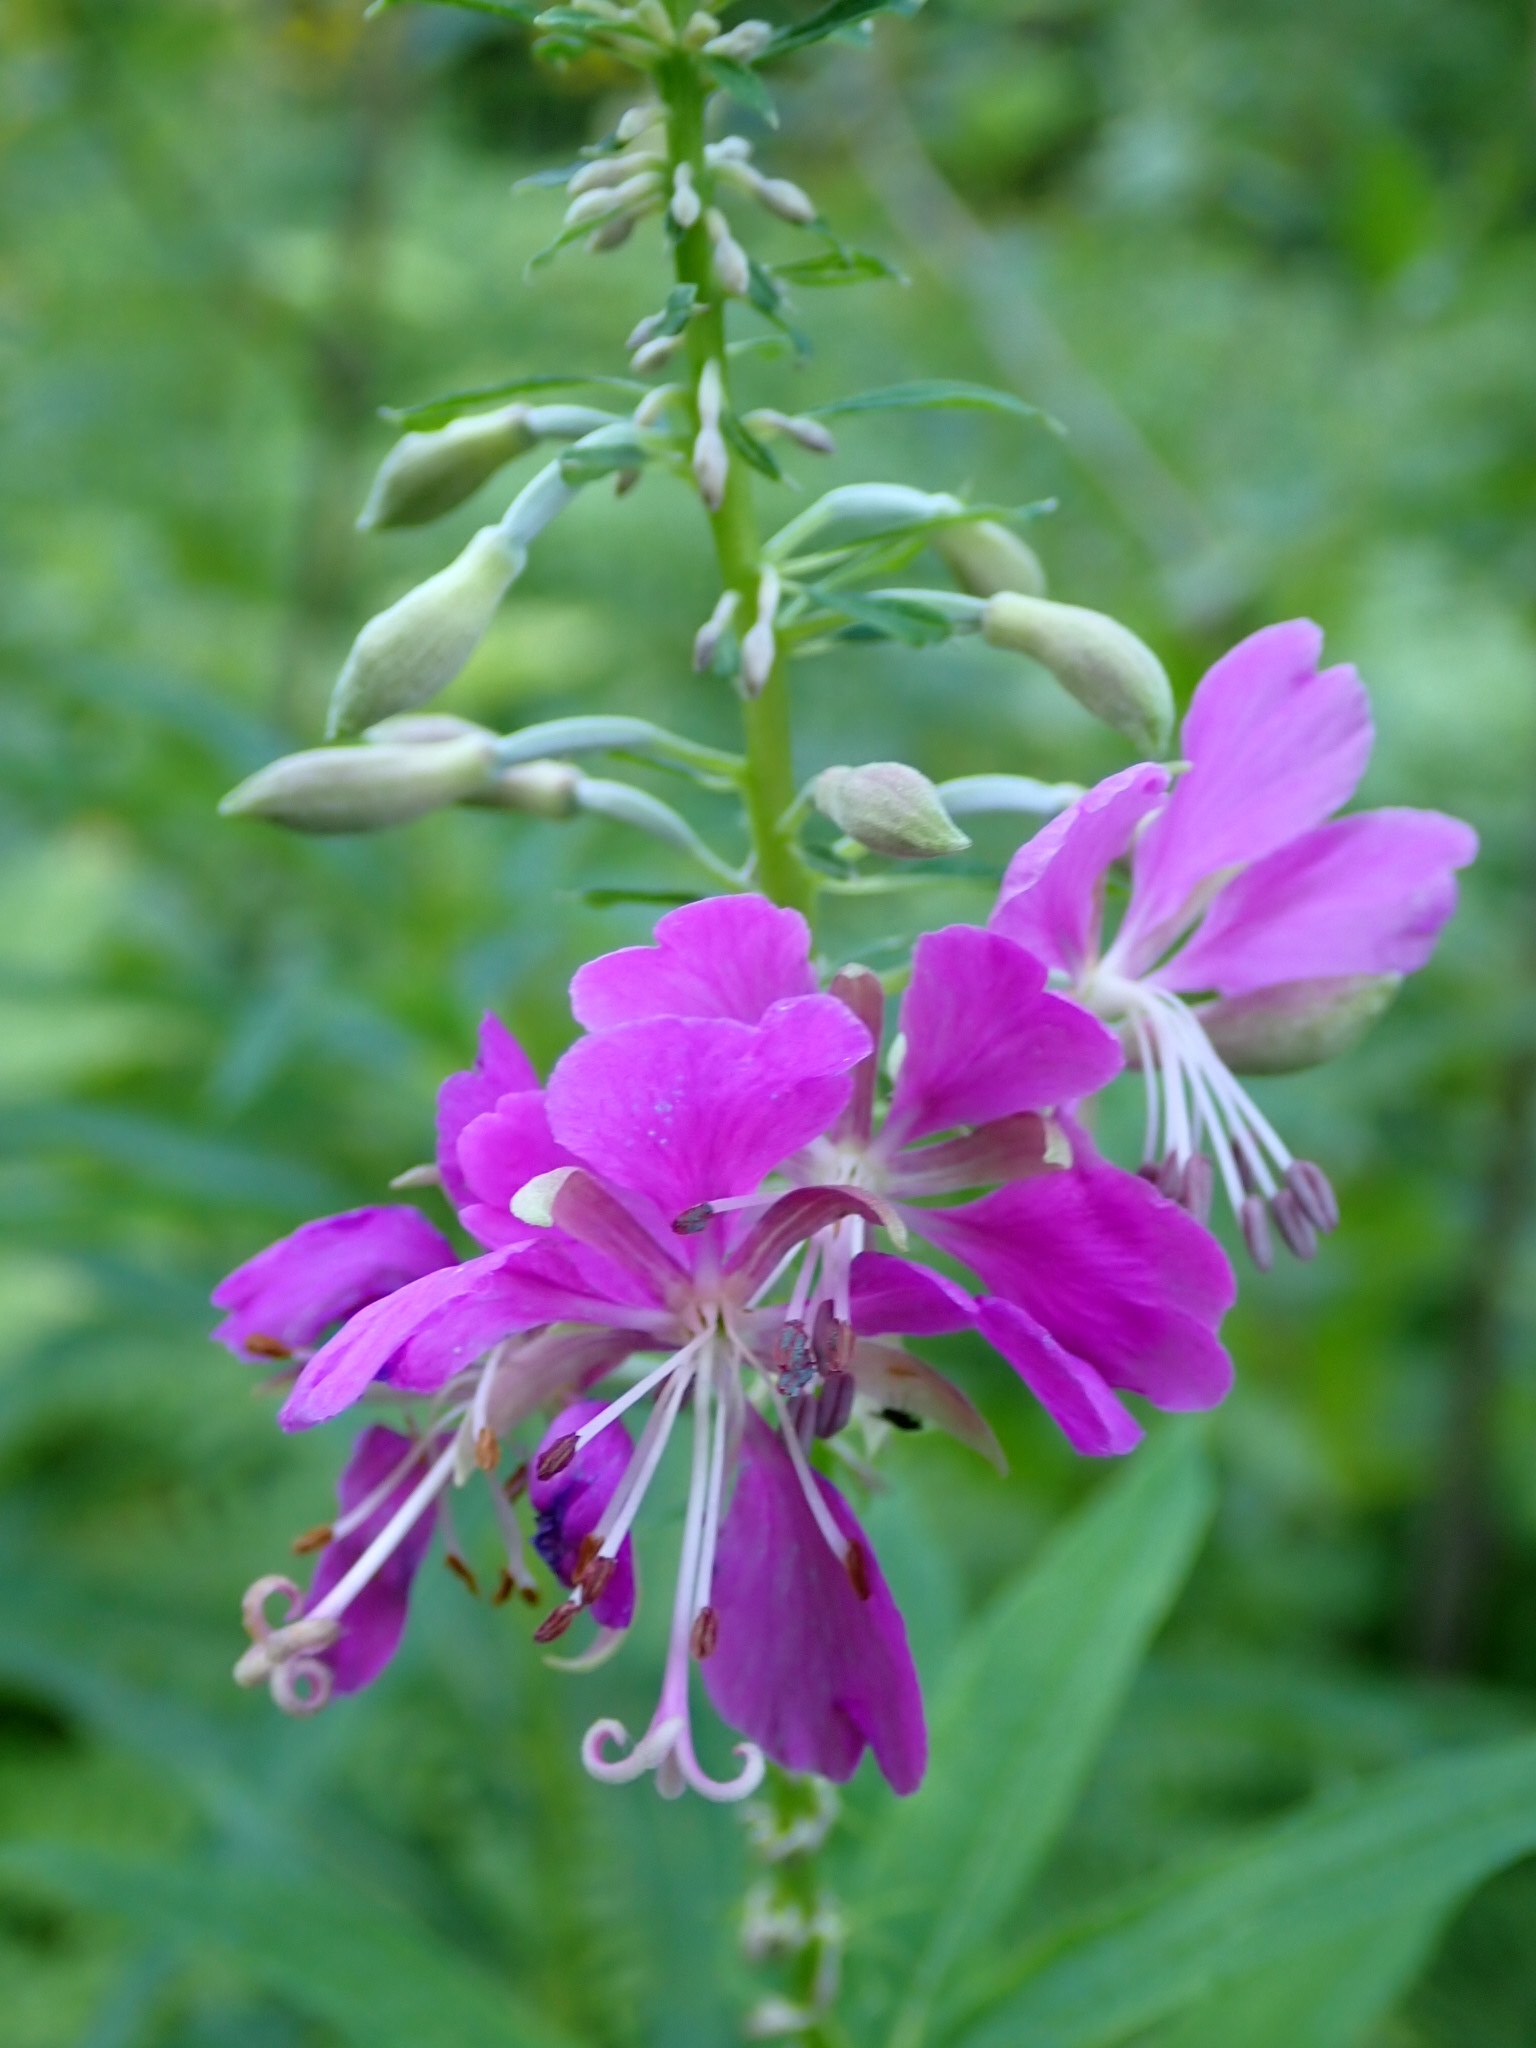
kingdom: Plantae
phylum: Tracheophyta
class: Magnoliopsida
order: Myrtales
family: Onagraceae
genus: Chamaenerion
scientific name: Chamaenerion angustifolium
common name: Fireweed
